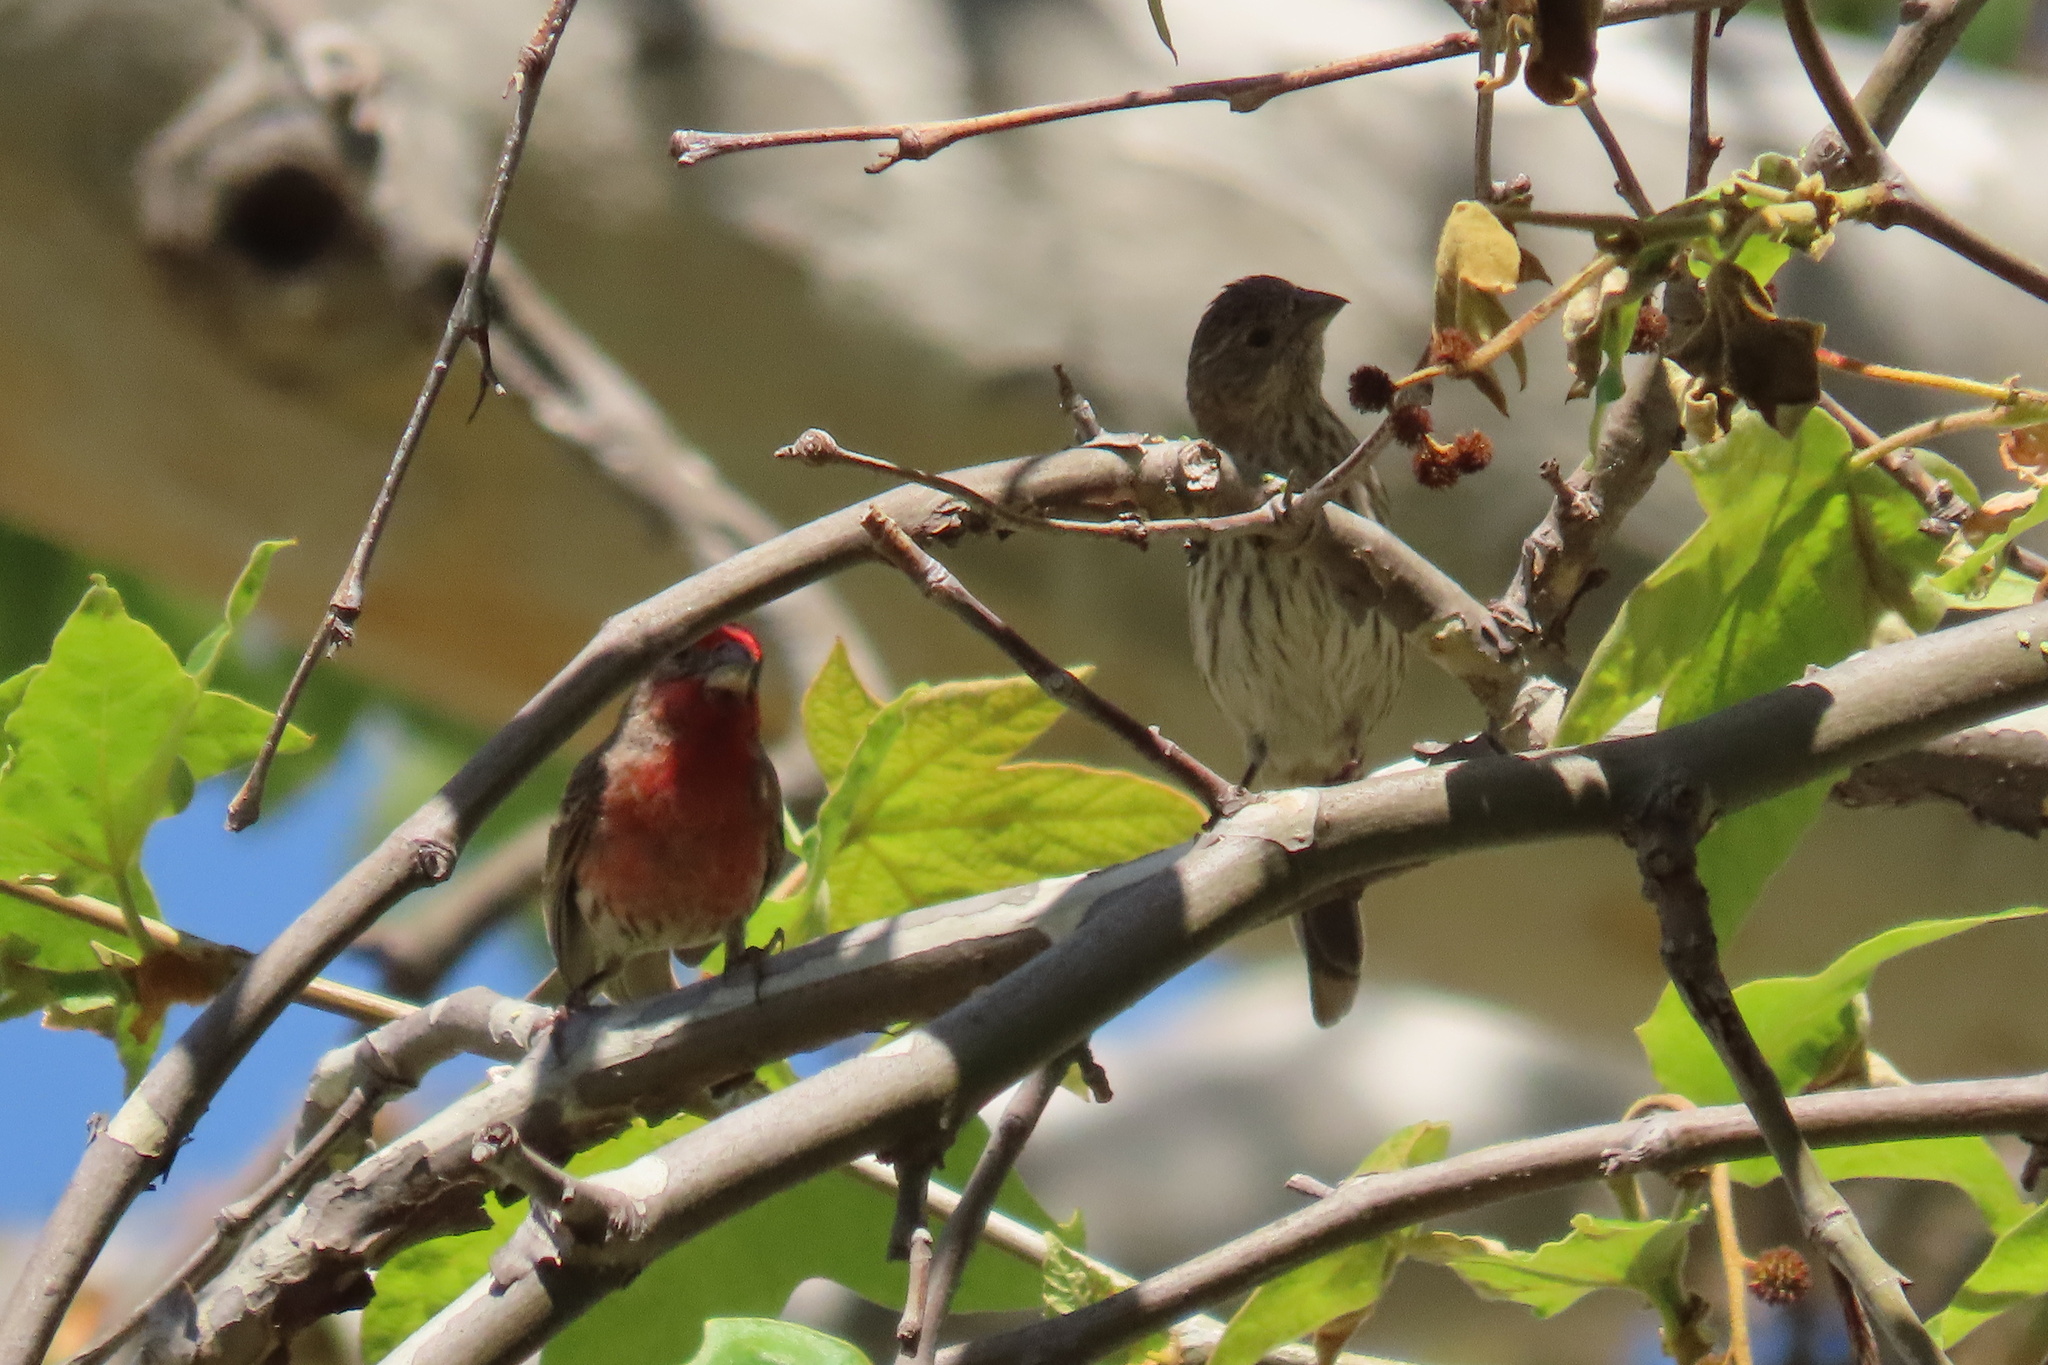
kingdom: Animalia
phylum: Chordata
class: Aves
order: Passeriformes
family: Fringillidae
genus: Haemorhous
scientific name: Haemorhous mexicanus
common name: House finch
